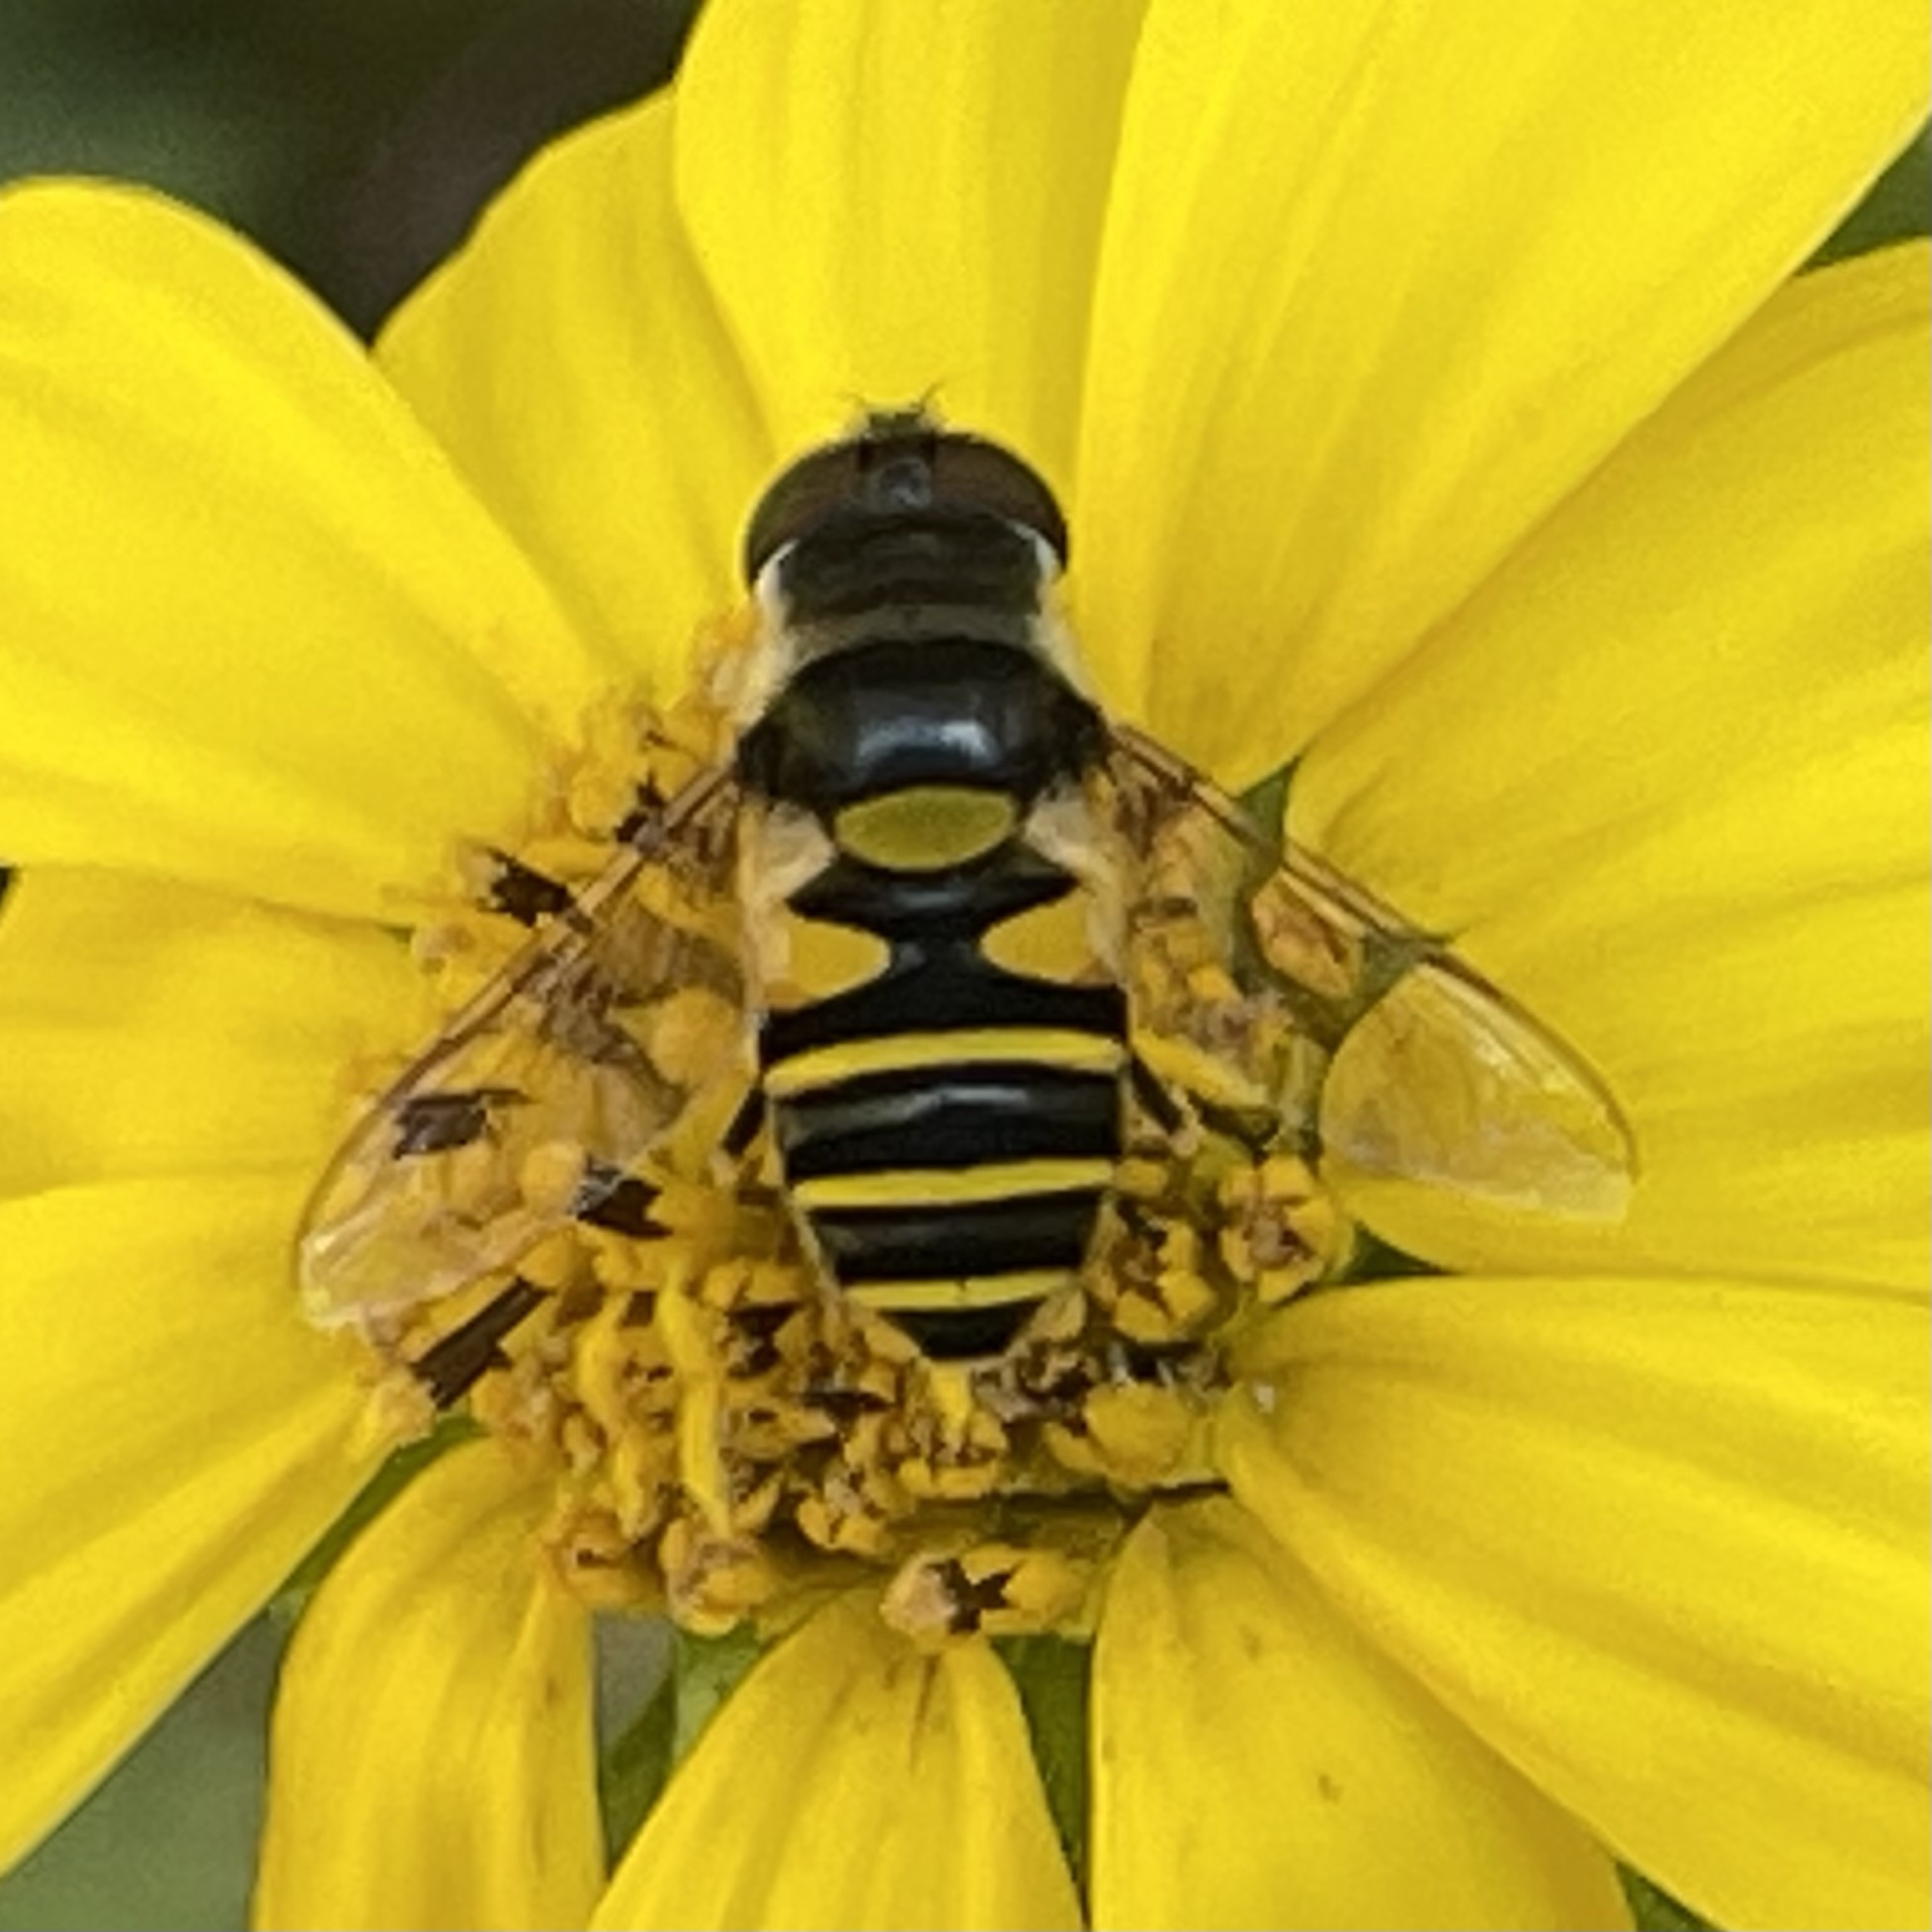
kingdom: Animalia
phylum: Arthropoda
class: Insecta
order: Diptera
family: Syrphidae
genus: Eristalis
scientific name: Eristalis transversa
